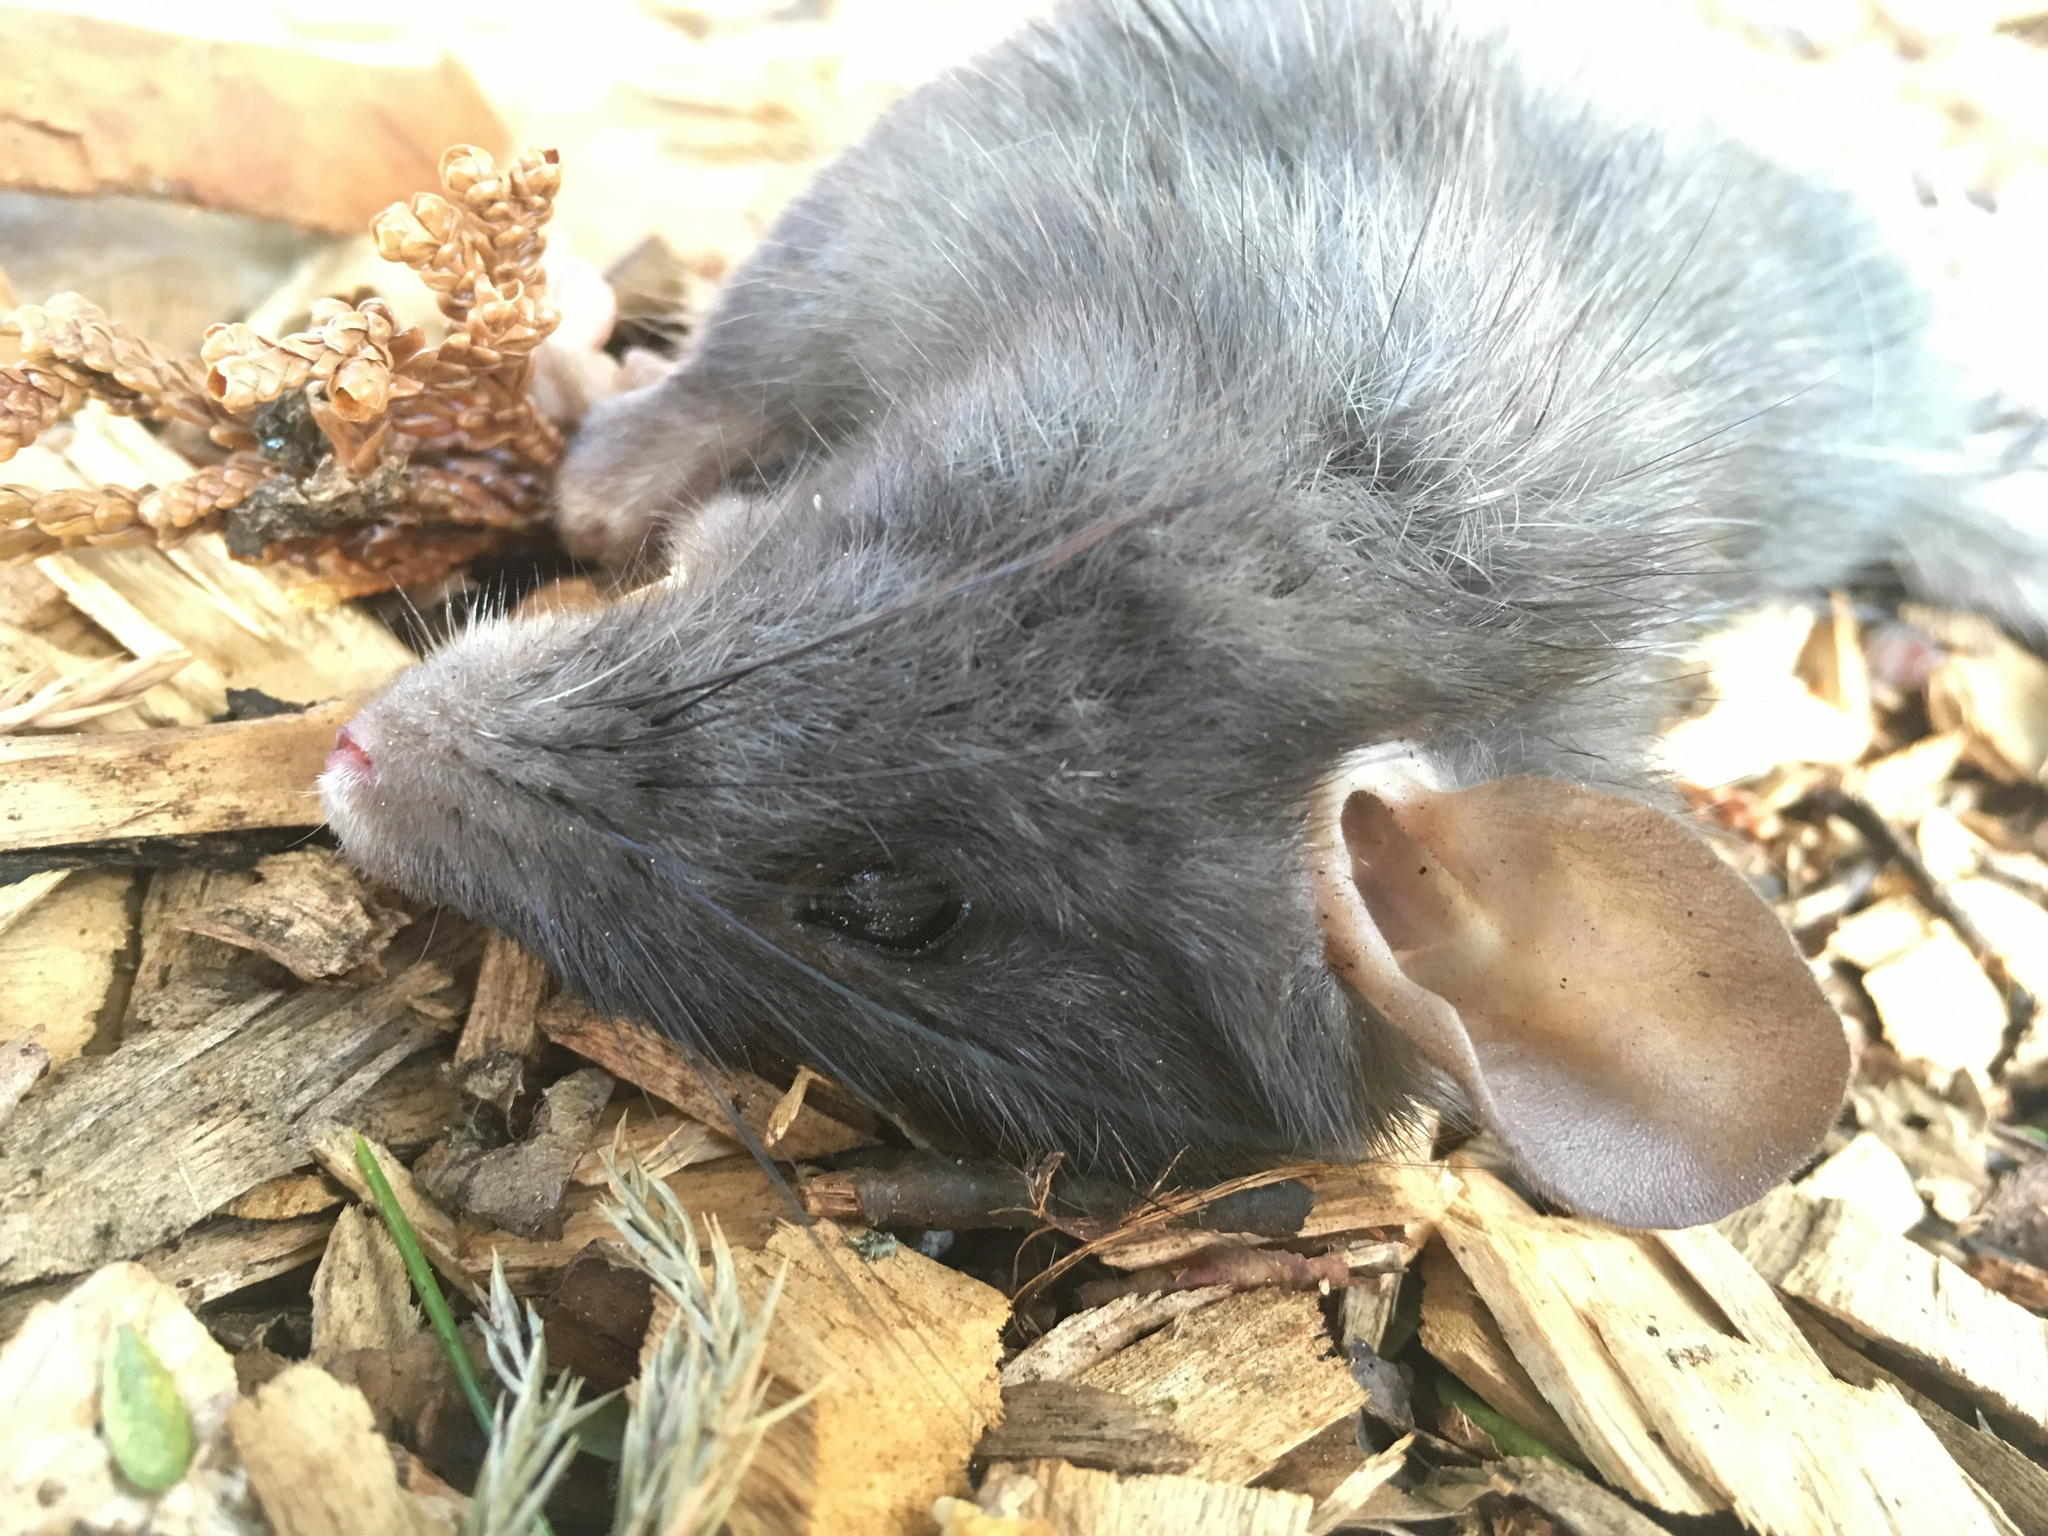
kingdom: Animalia
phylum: Chordata
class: Mammalia
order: Rodentia
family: Muridae
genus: Rattus
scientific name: Rattus rattus
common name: Black rat
